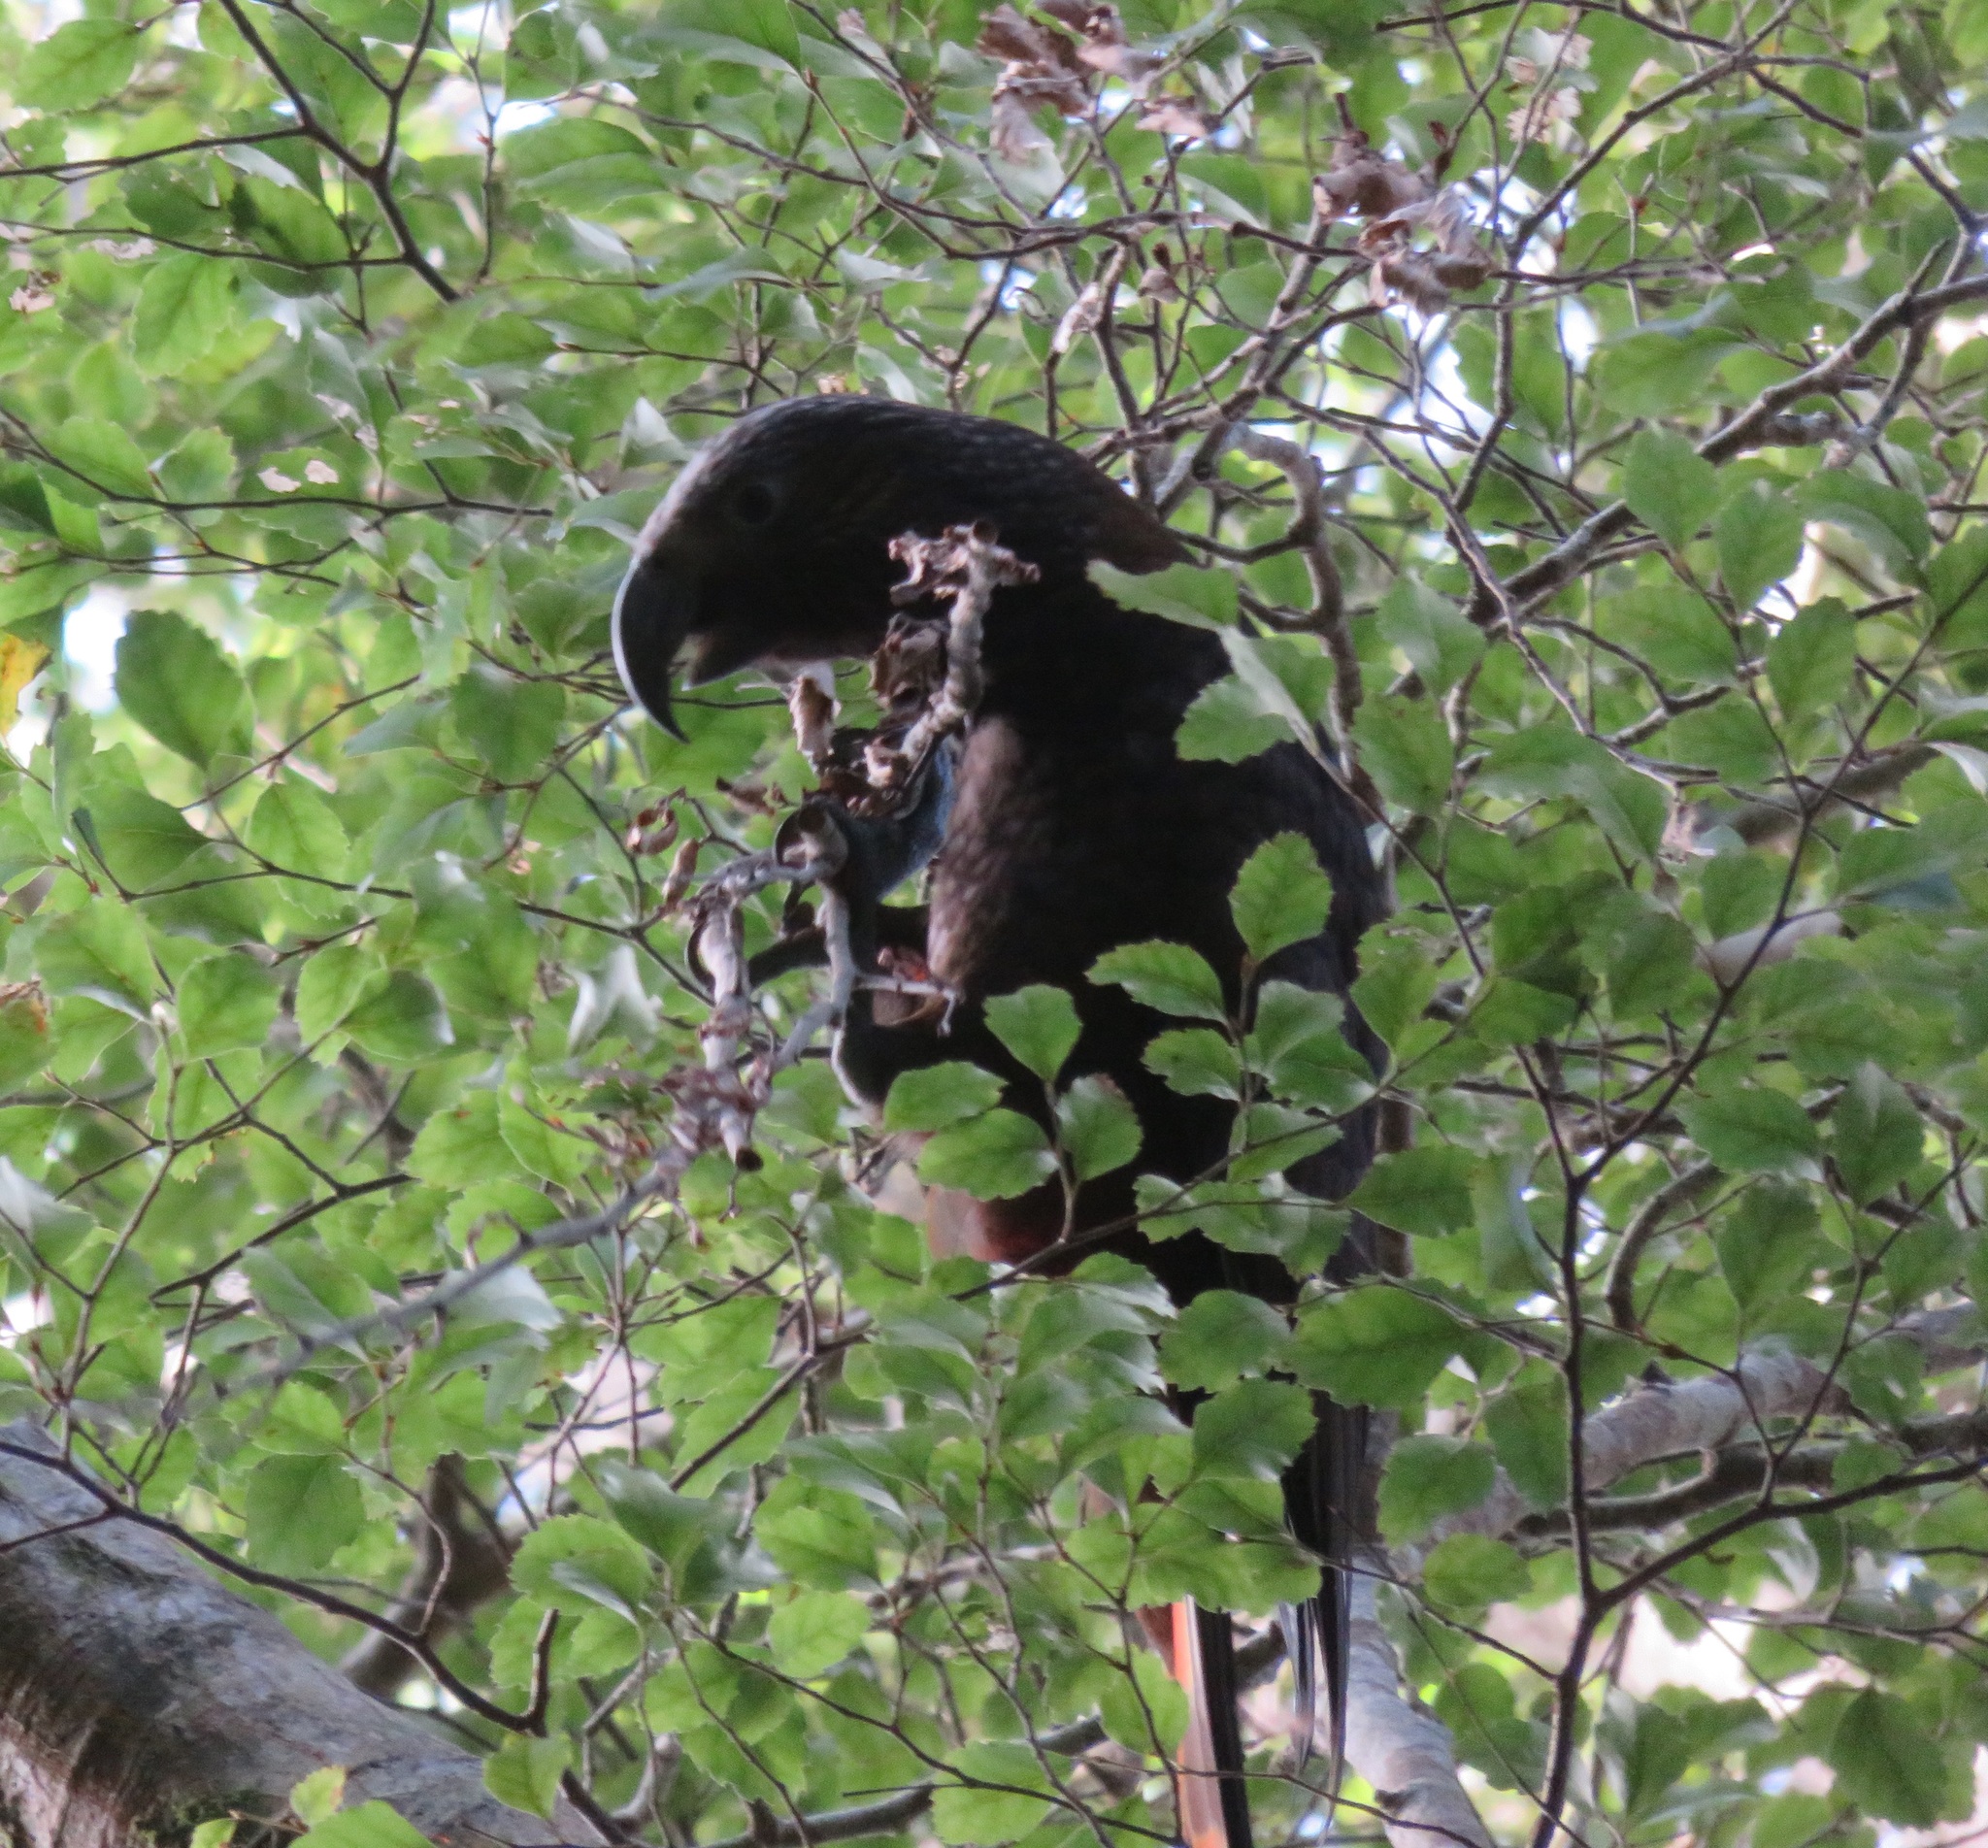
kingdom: Animalia
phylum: Chordata
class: Aves
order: Psittaciformes
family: Psittacidae
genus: Nestor
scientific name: Nestor meridionalis
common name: New zealand kaka
